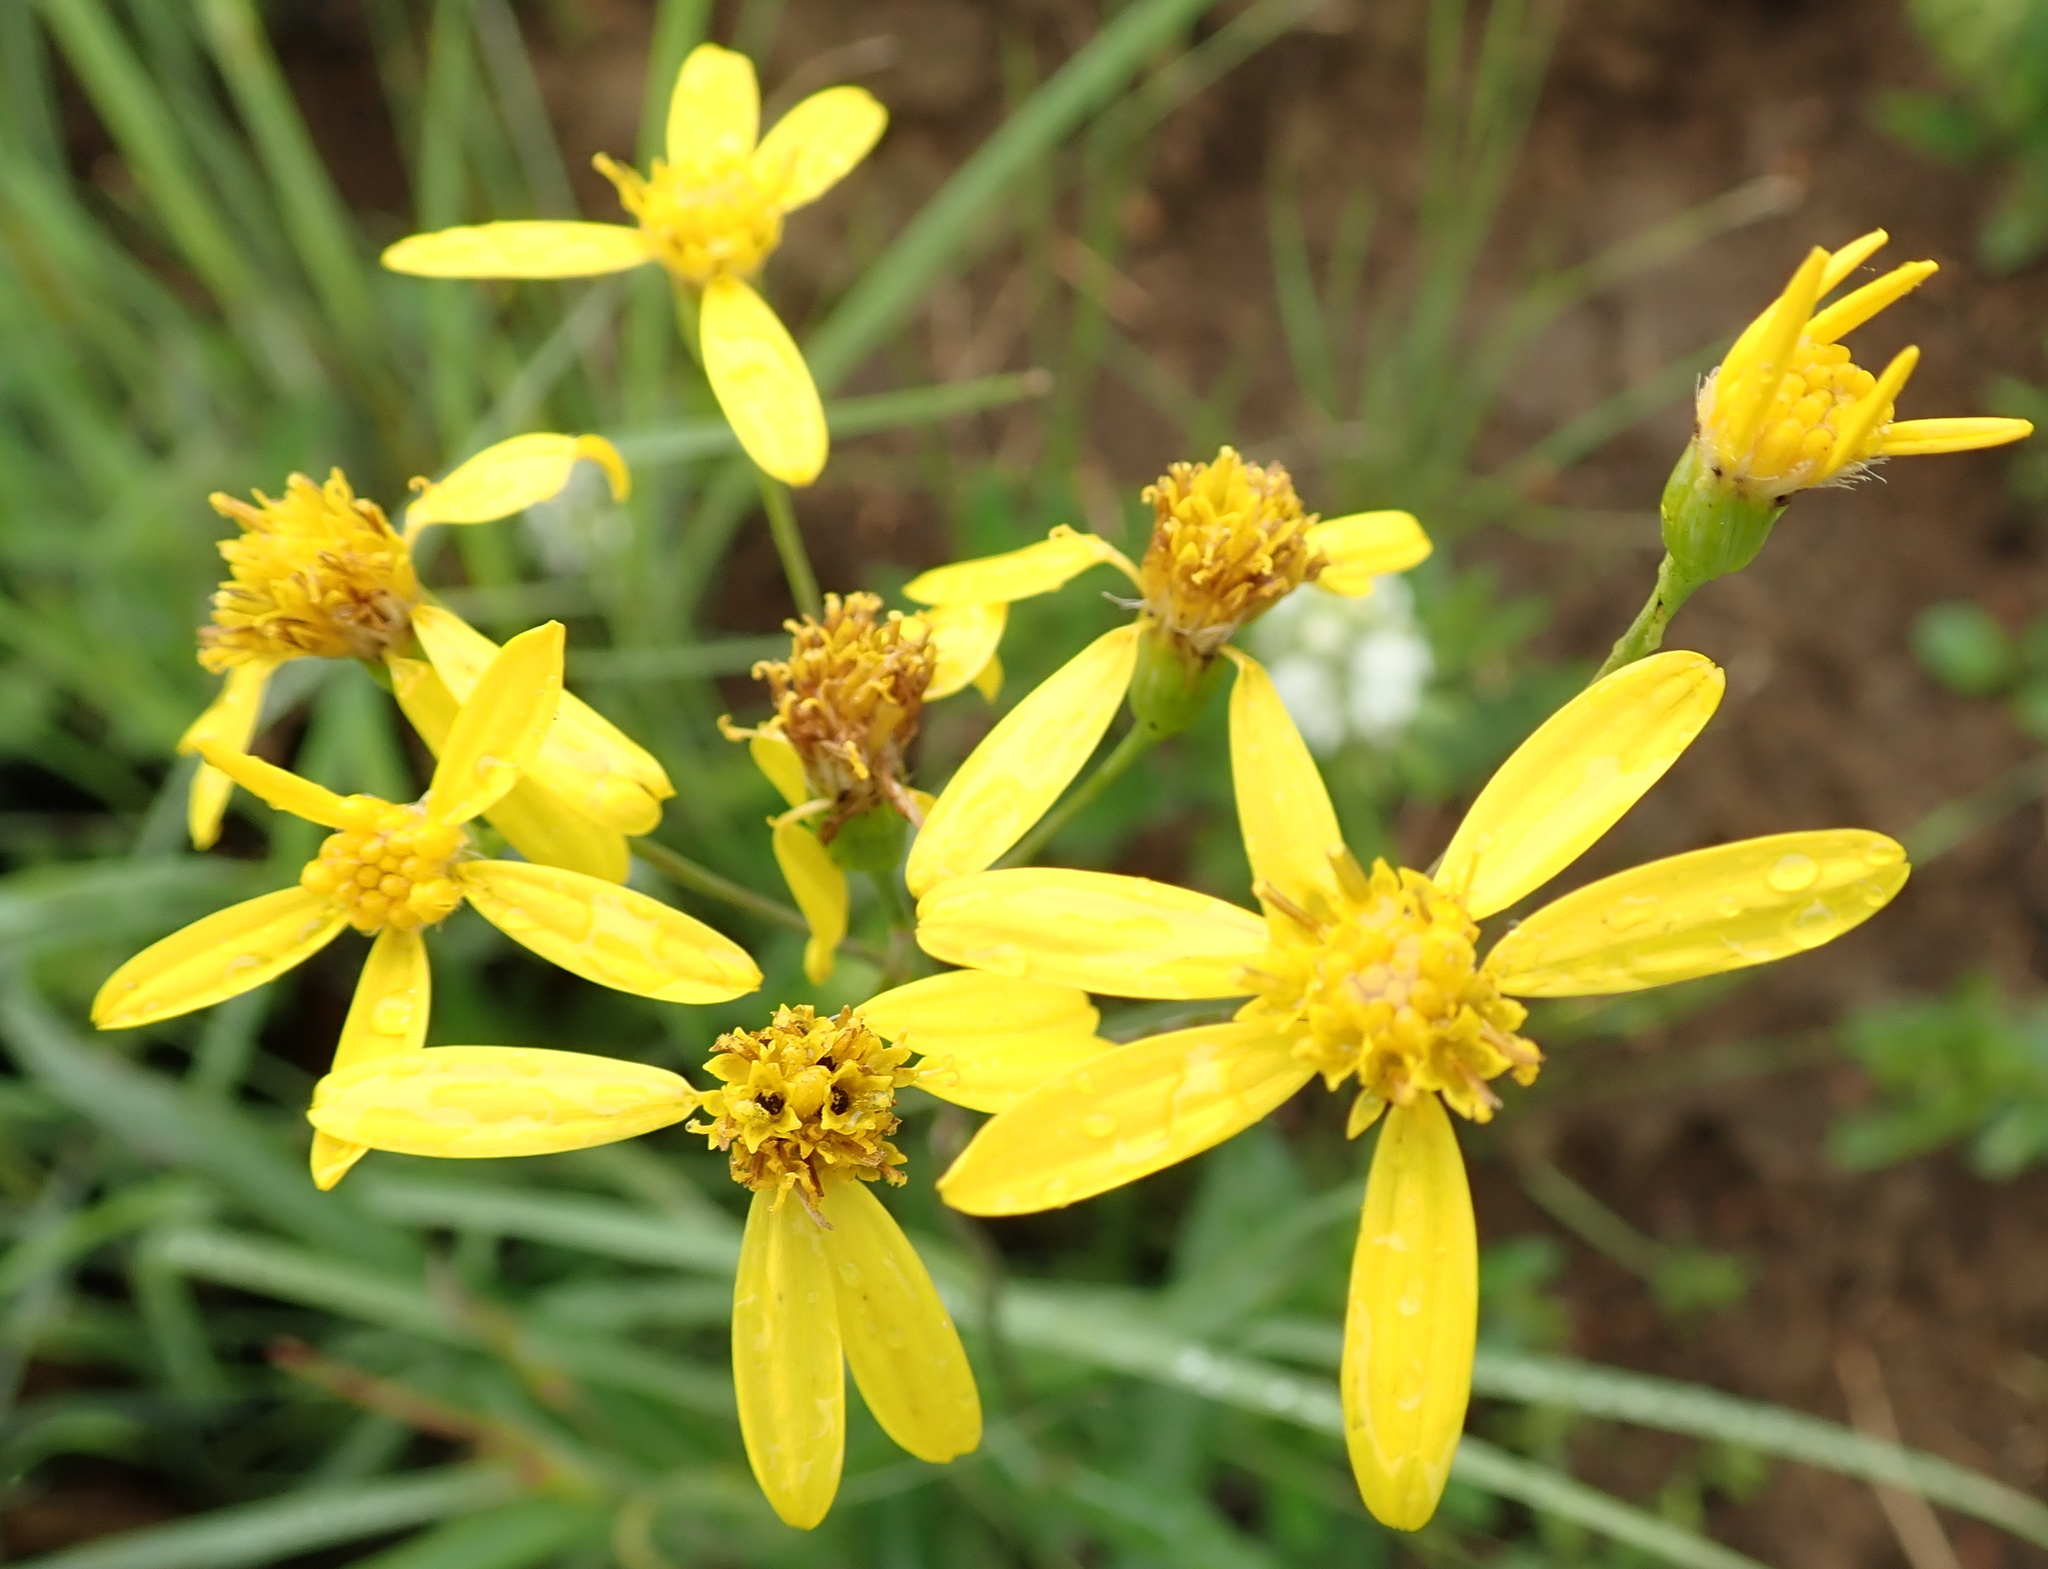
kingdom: Plantae
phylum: Tracheophyta
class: Magnoliopsida
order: Asterales
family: Asteraceae
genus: Senecio
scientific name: Senecio bupleuroides
